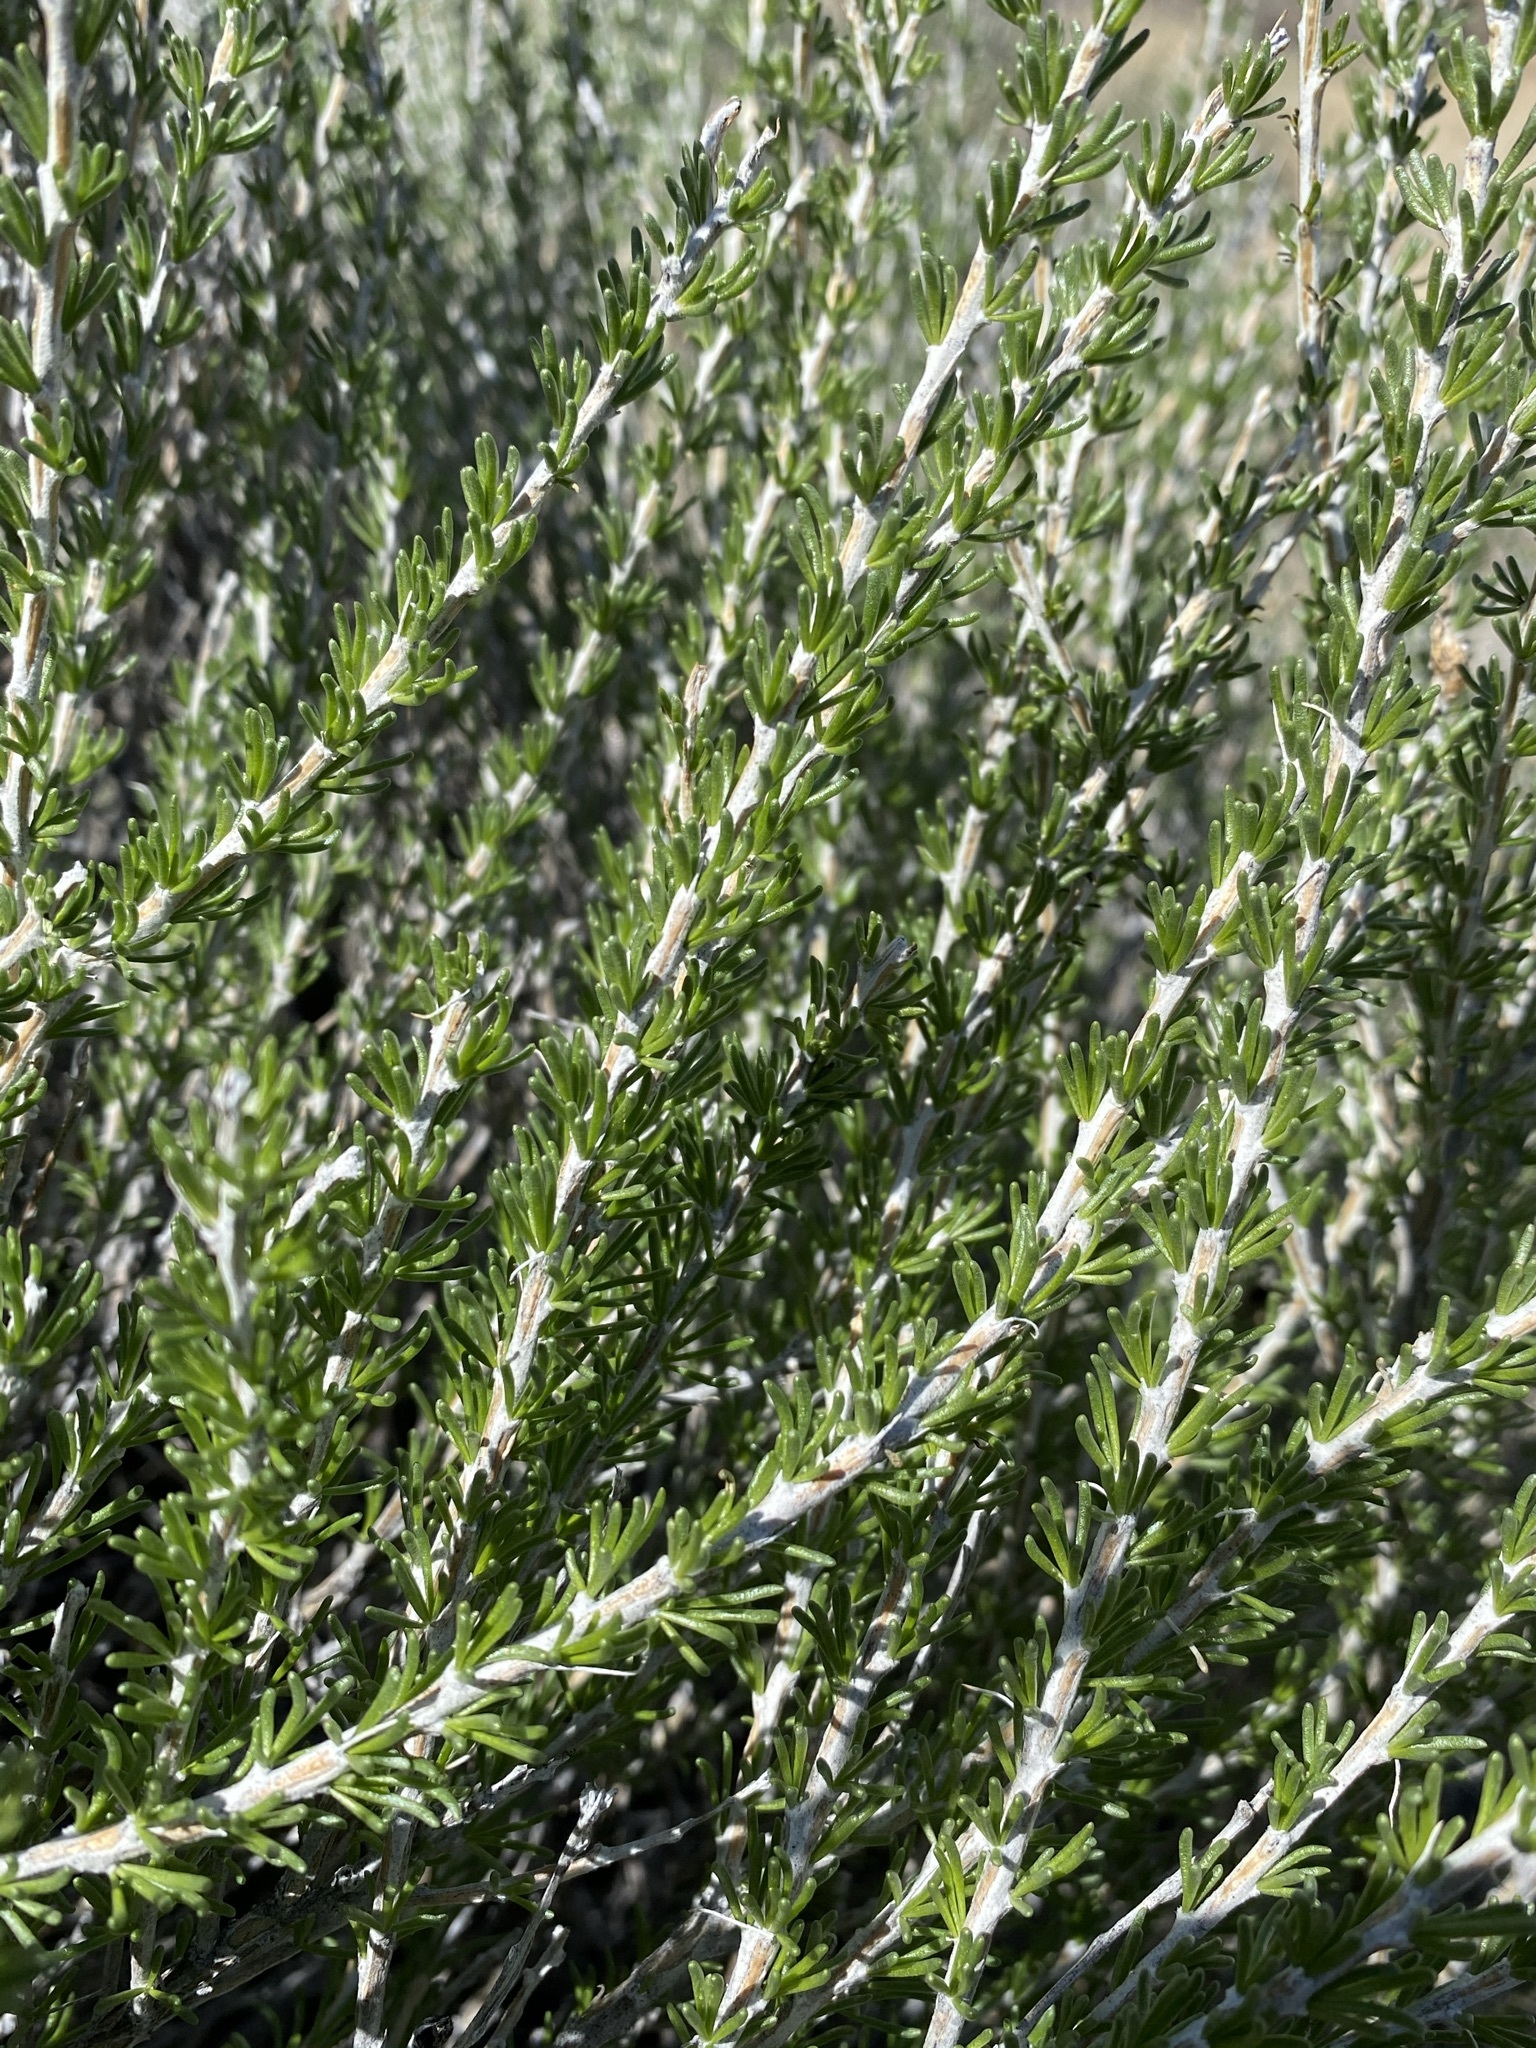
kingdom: Plantae
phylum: Tracheophyta
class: Magnoliopsida
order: Asterales
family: Asteraceae
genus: Tetradymia
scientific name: Tetradymia glabrata
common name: Smooth tetradymia
